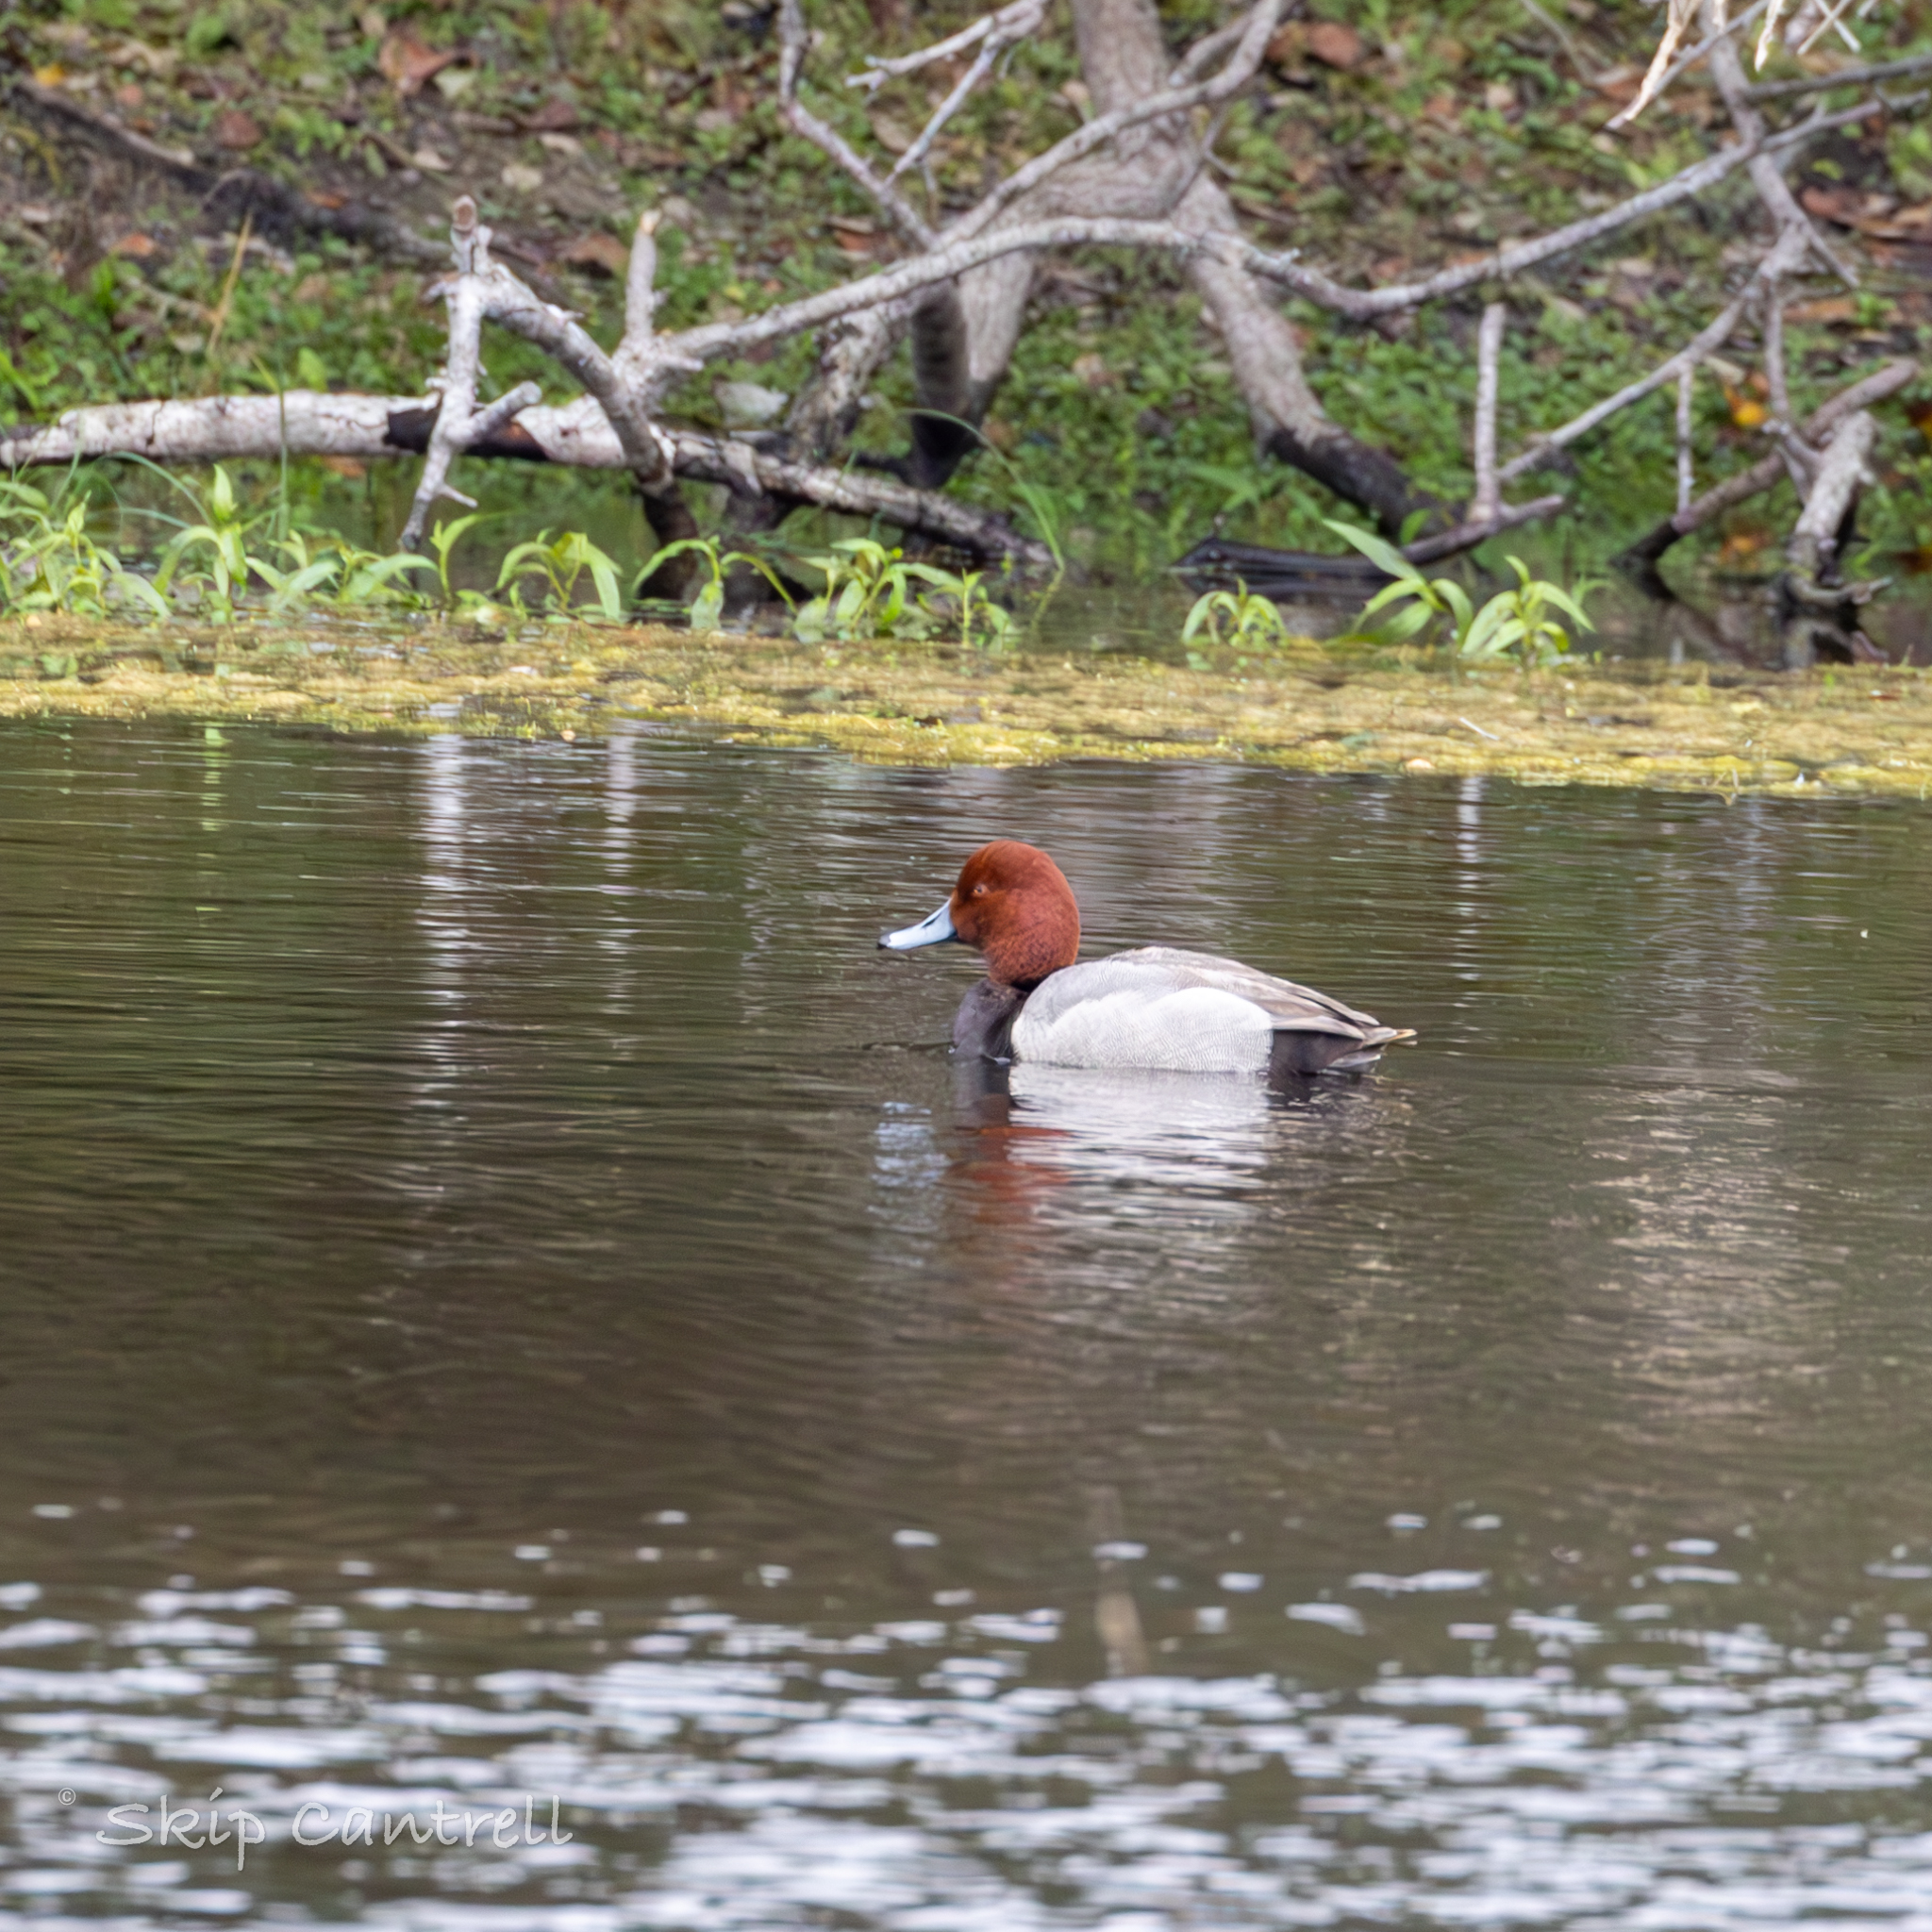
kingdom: Animalia
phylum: Chordata
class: Aves
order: Anseriformes
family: Anatidae
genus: Aythya
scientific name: Aythya americana
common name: Redhead
